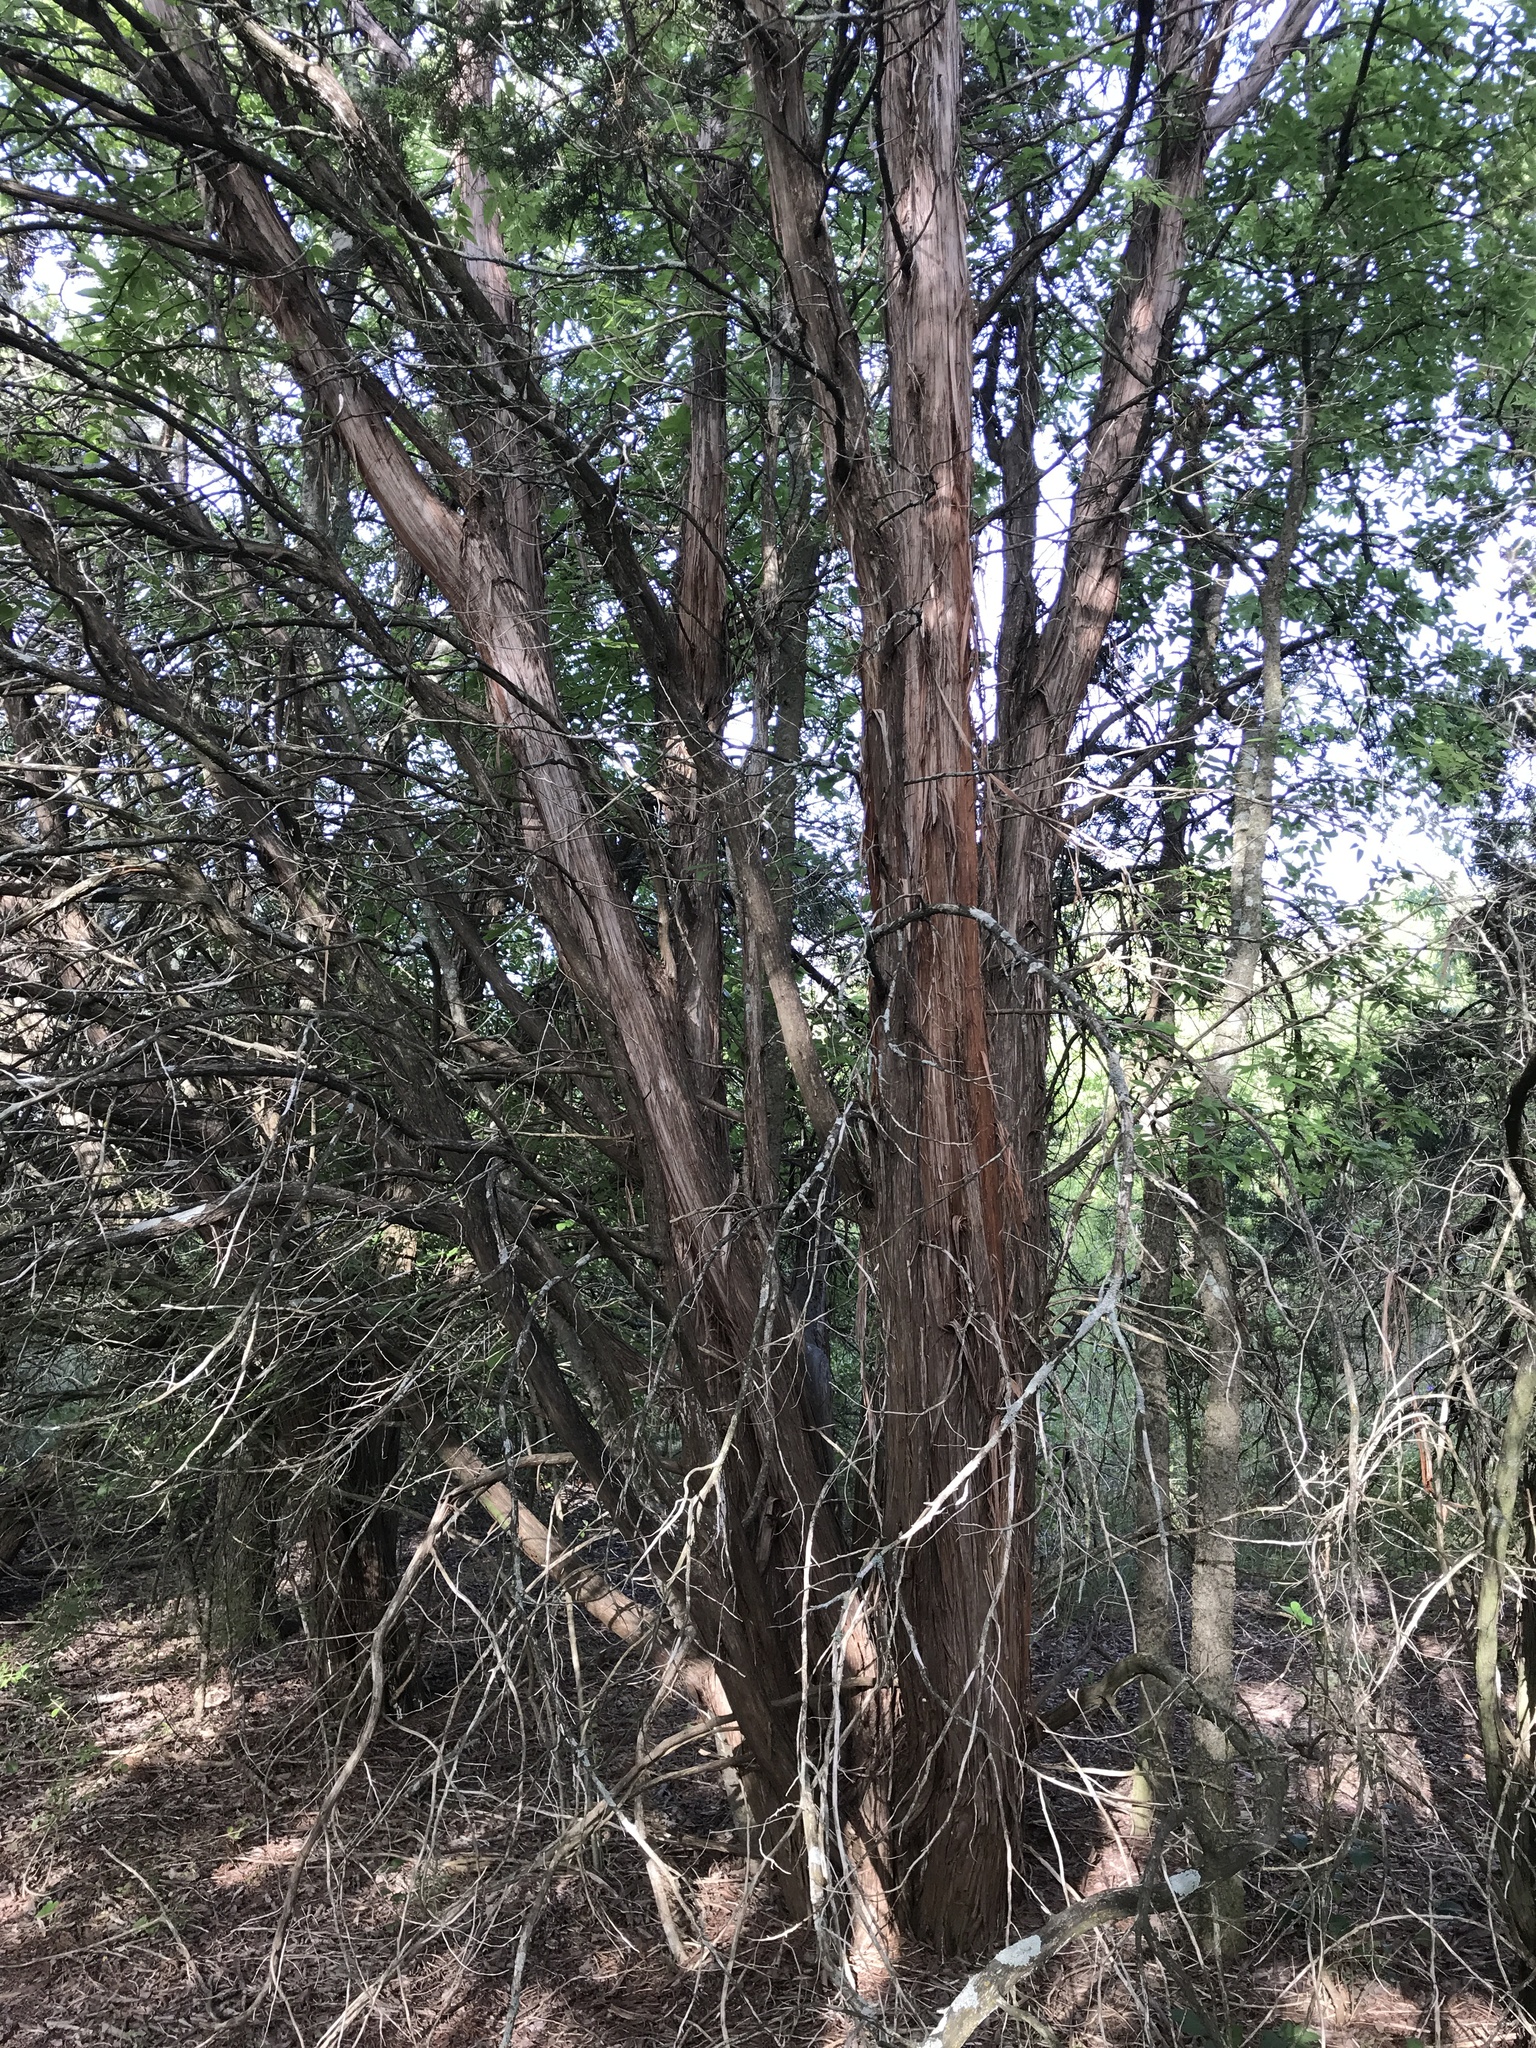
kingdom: Plantae
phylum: Tracheophyta
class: Pinopsida
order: Pinales
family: Cupressaceae
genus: Juniperus
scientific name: Juniperus ashei
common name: Mexican juniper
